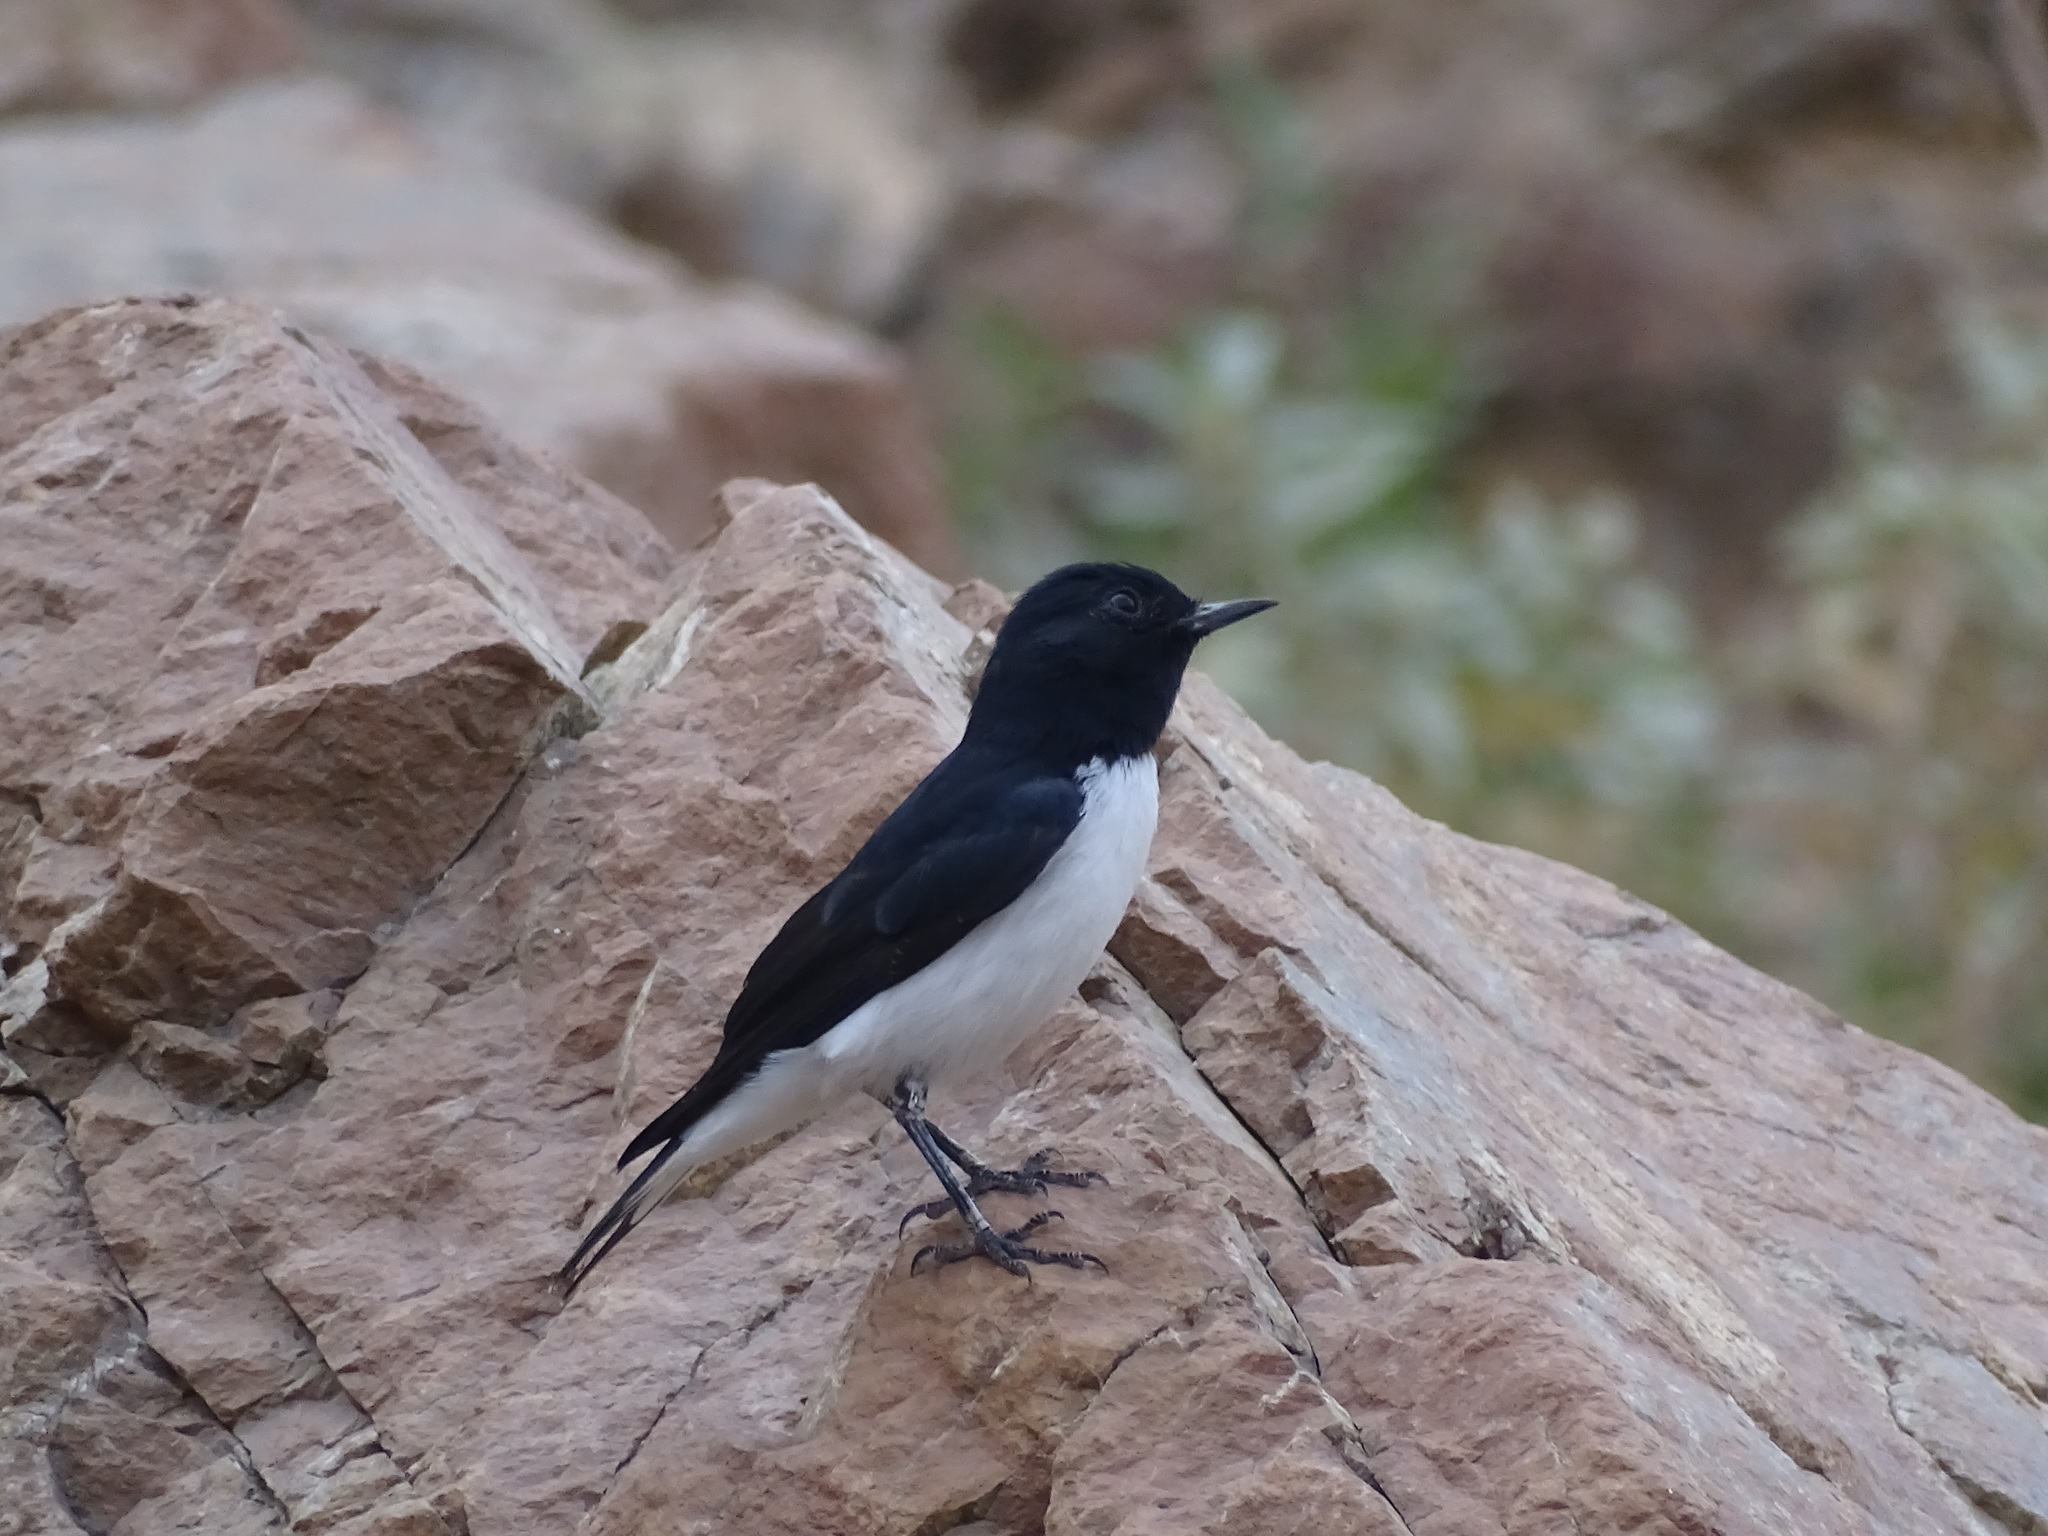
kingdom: Animalia
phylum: Chordata
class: Aves
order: Passeriformes
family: Muscicapidae
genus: Oenanthe
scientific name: Oenanthe albonigra
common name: Hume's wheatear
